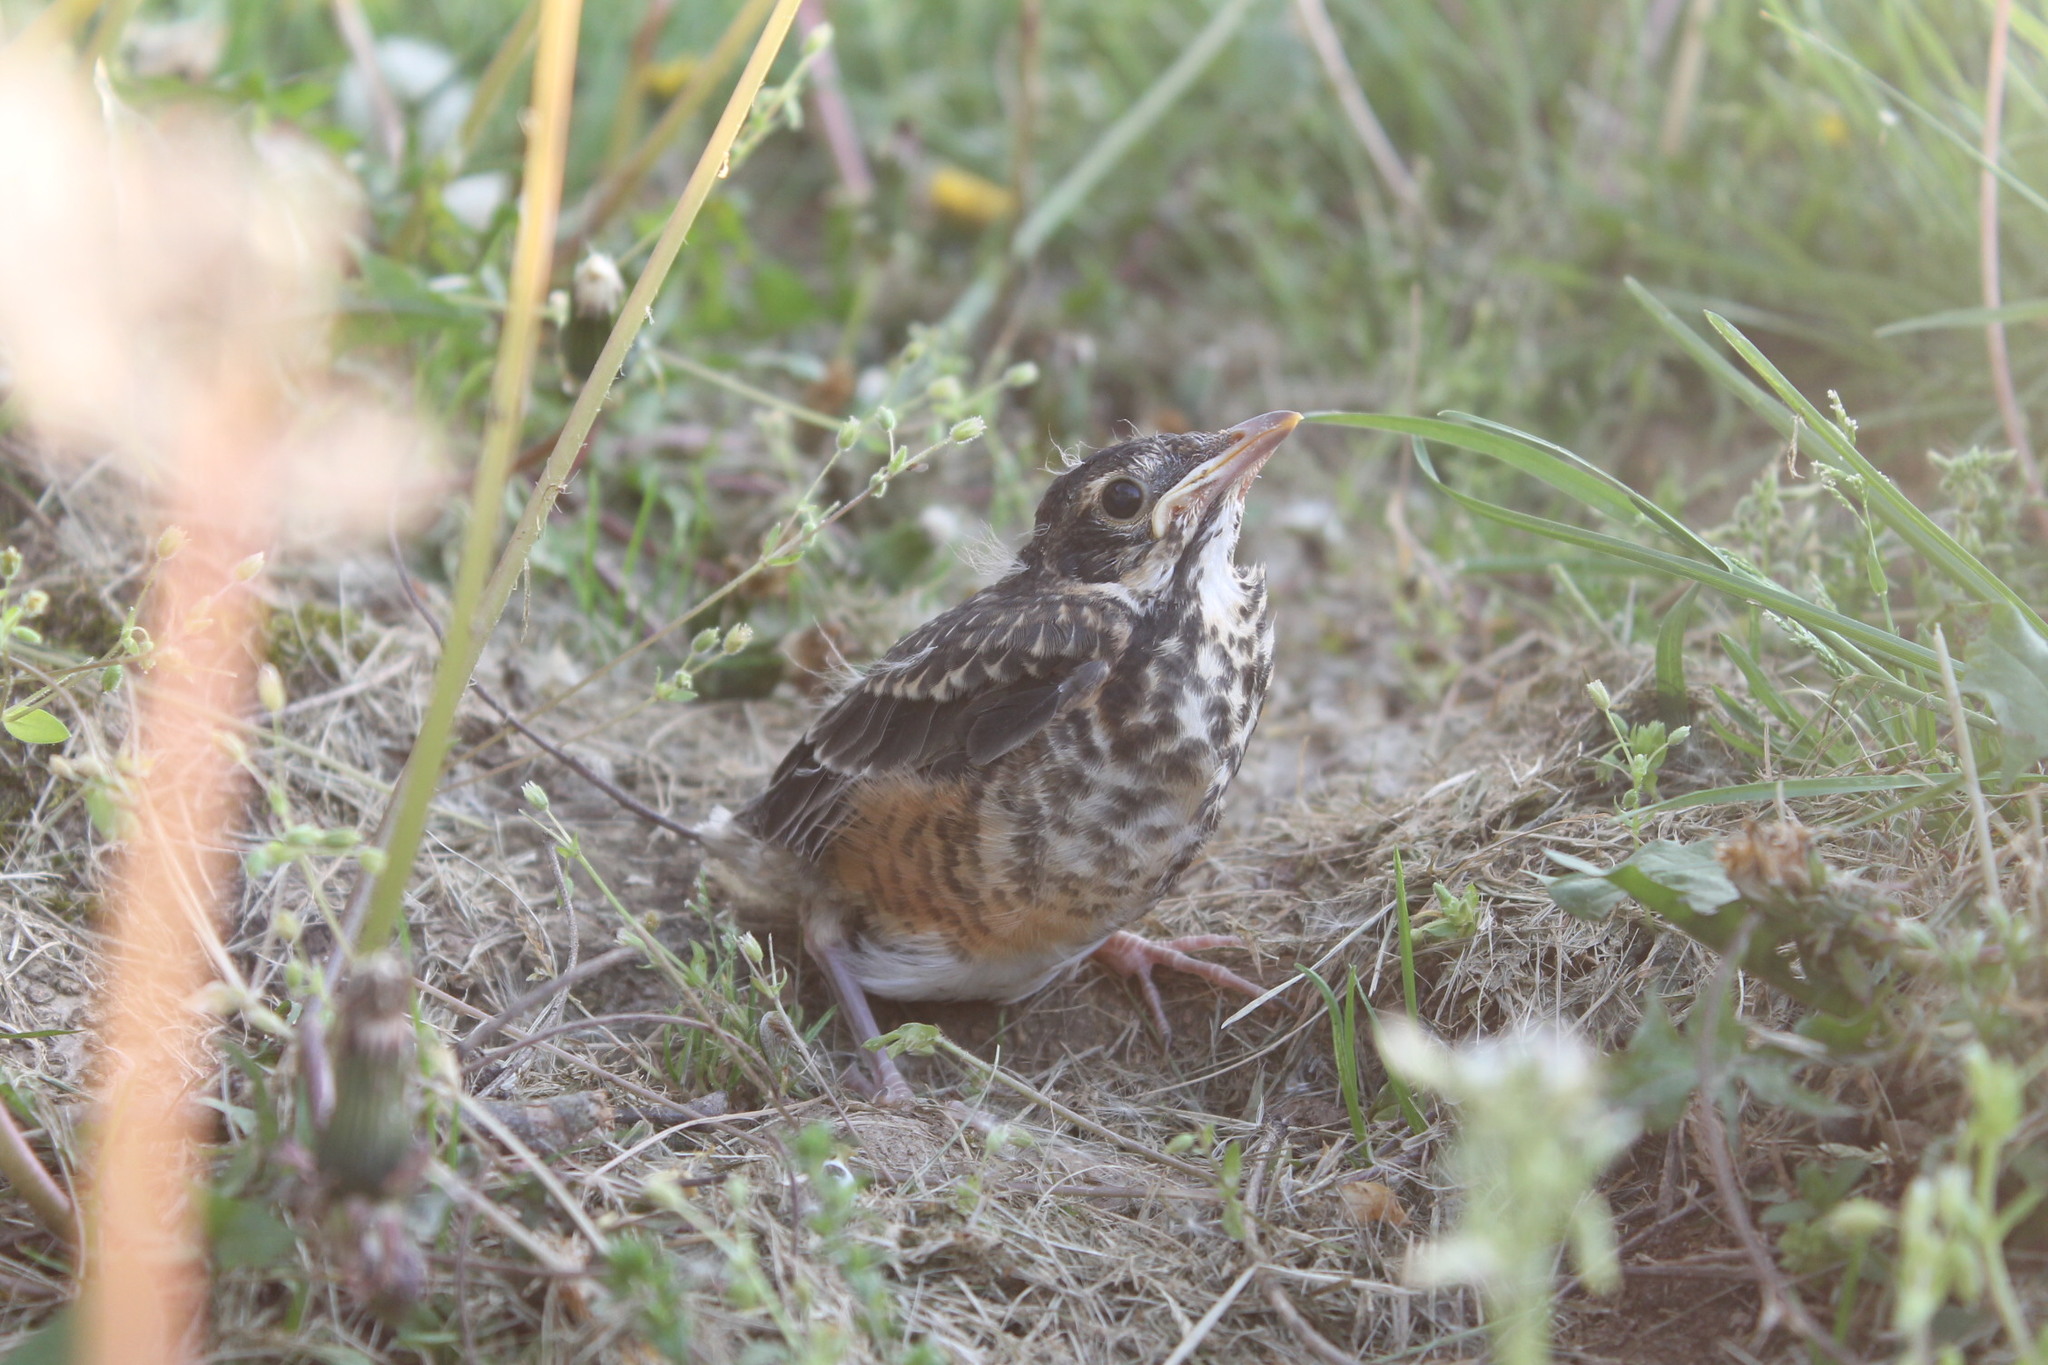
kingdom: Animalia
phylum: Chordata
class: Aves
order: Passeriformes
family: Turdidae
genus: Turdus
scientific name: Turdus migratorius
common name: American robin
